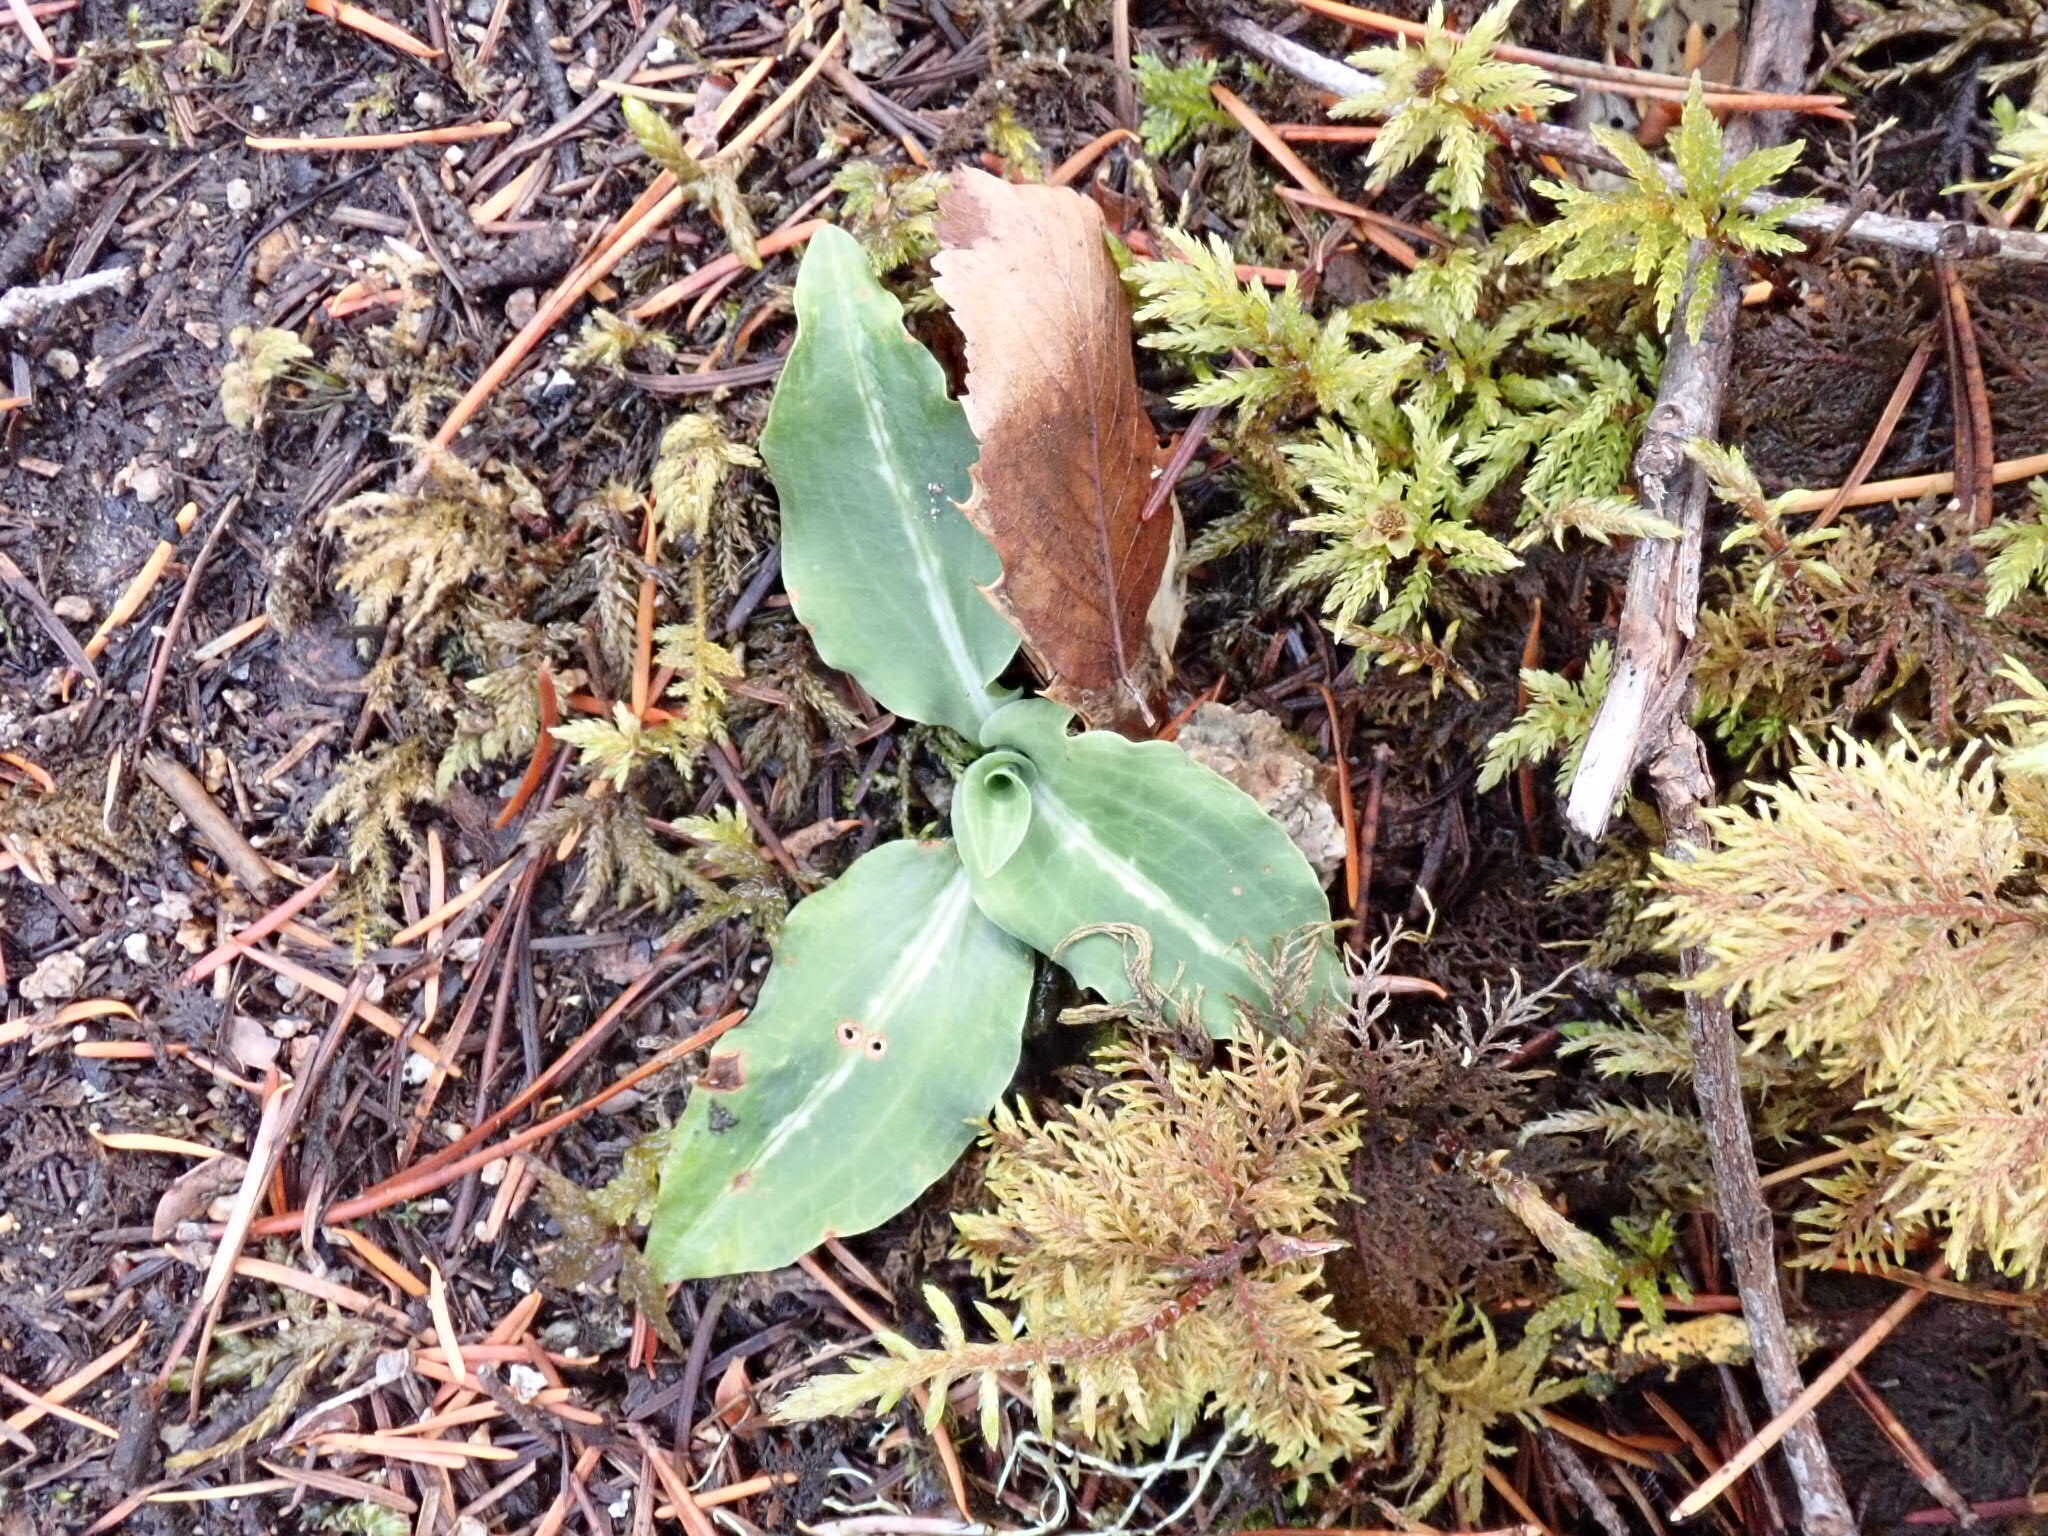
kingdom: Plantae
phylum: Tracheophyta
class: Liliopsida
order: Asparagales
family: Orchidaceae
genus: Goodyera
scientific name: Goodyera oblongifolia
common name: Giant rattlesnake-plantain
